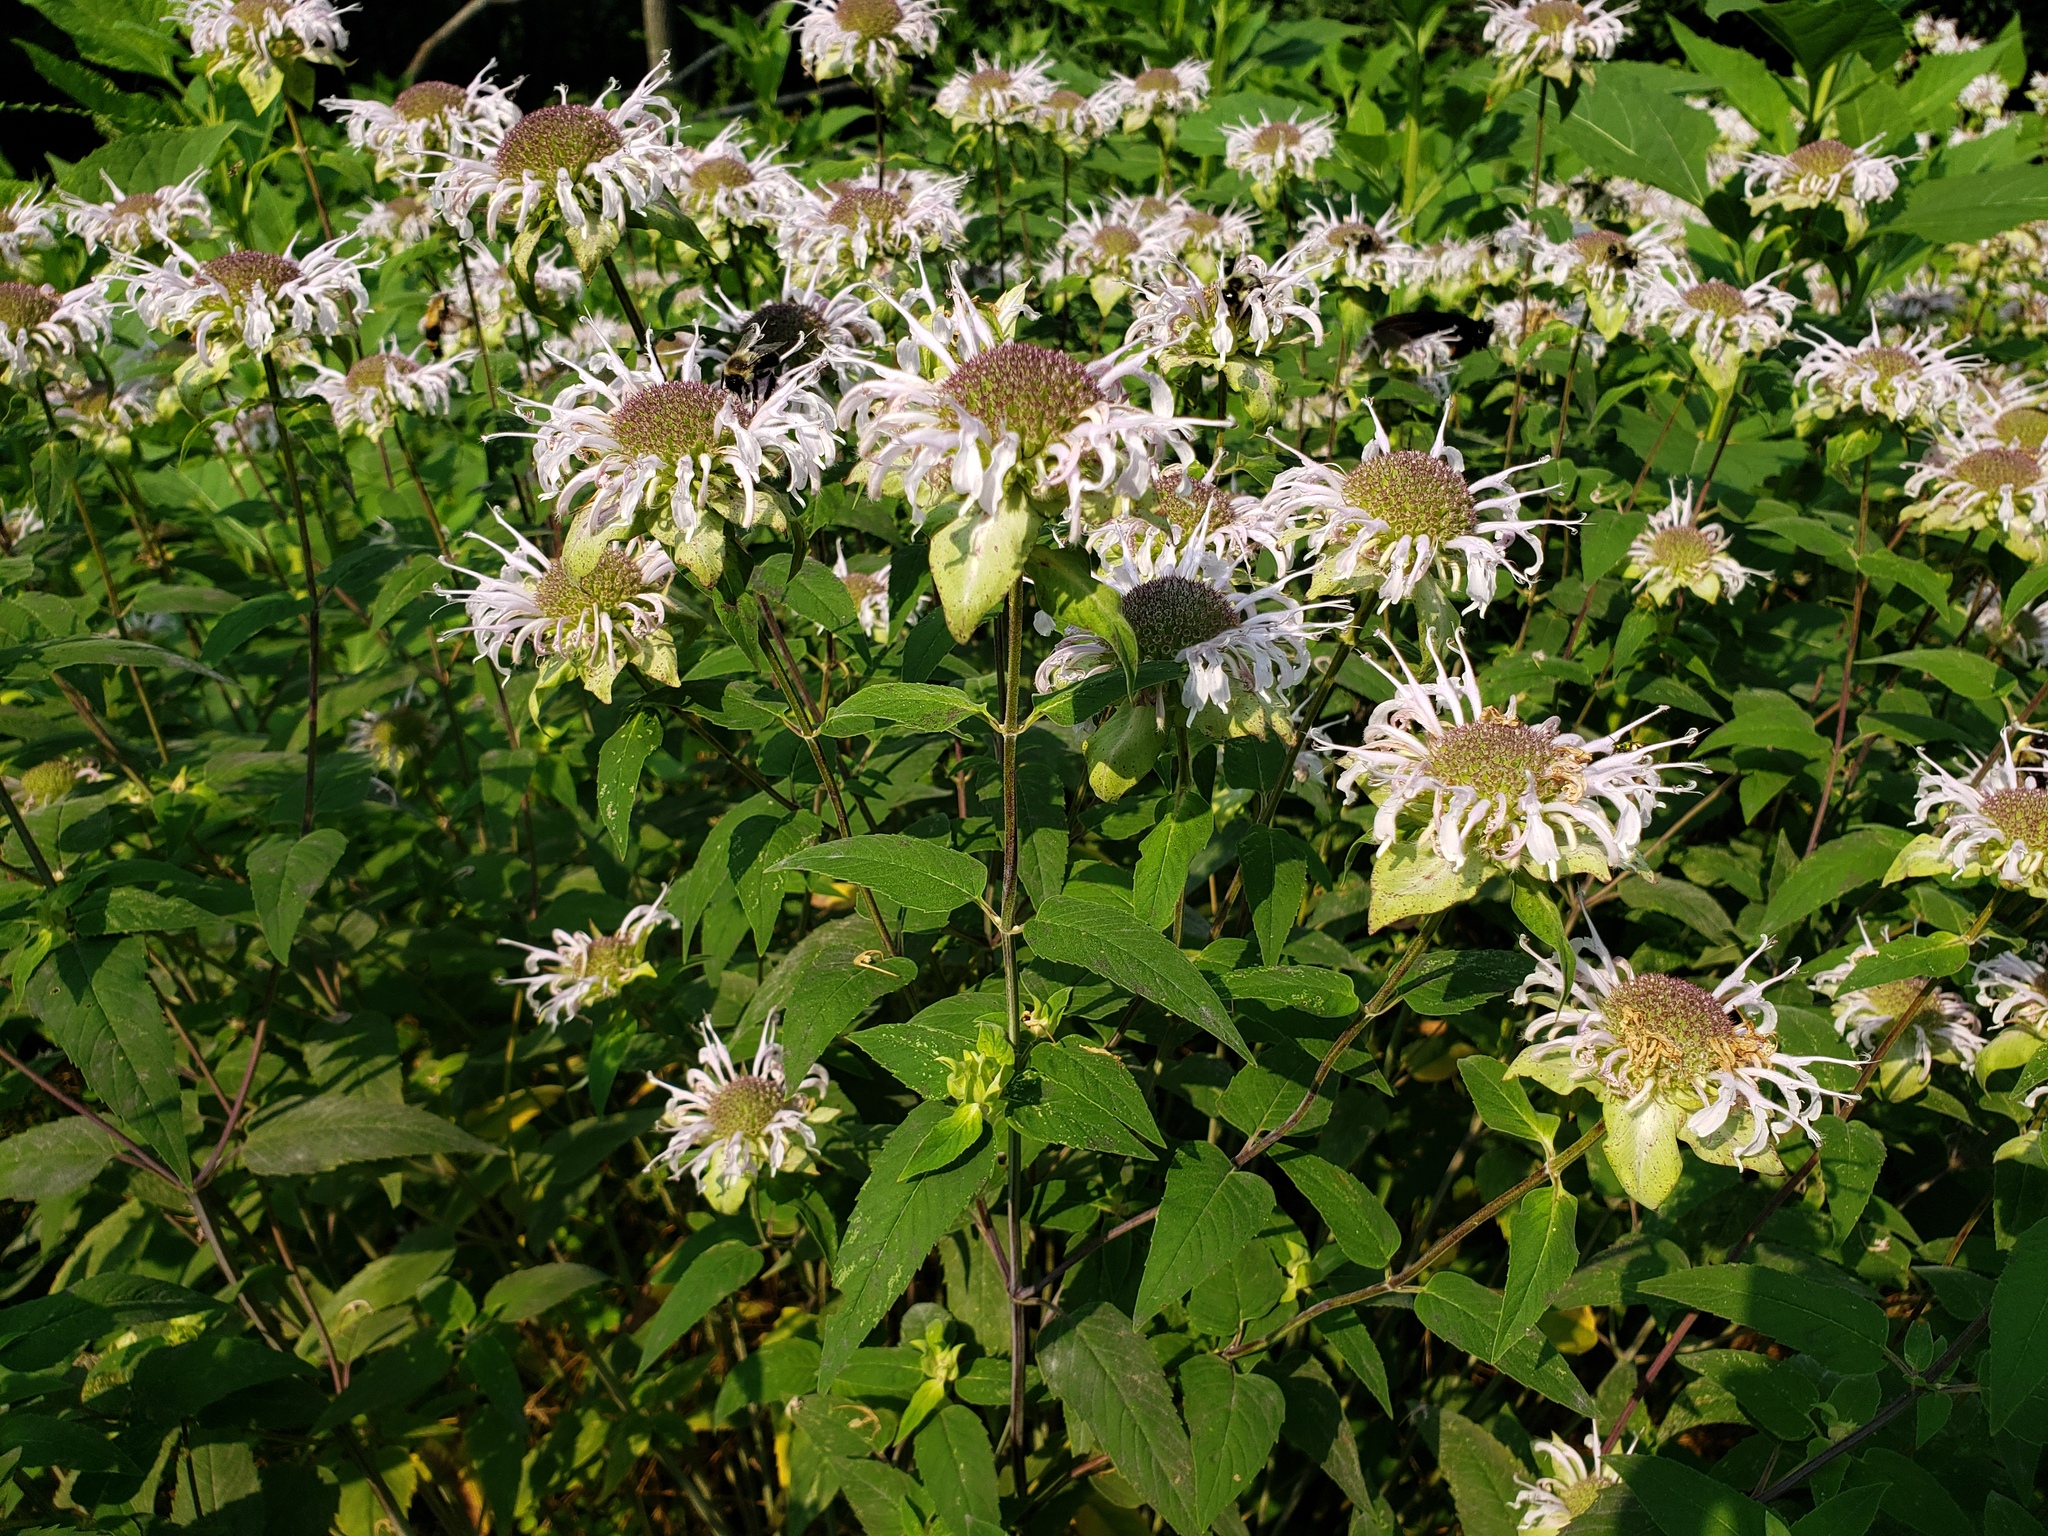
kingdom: Plantae
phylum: Tracheophyta
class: Magnoliopsida
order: Lamiales
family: Lamiaceae
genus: Monarda
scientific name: Monarda fistulosa
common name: Purple beebalm
